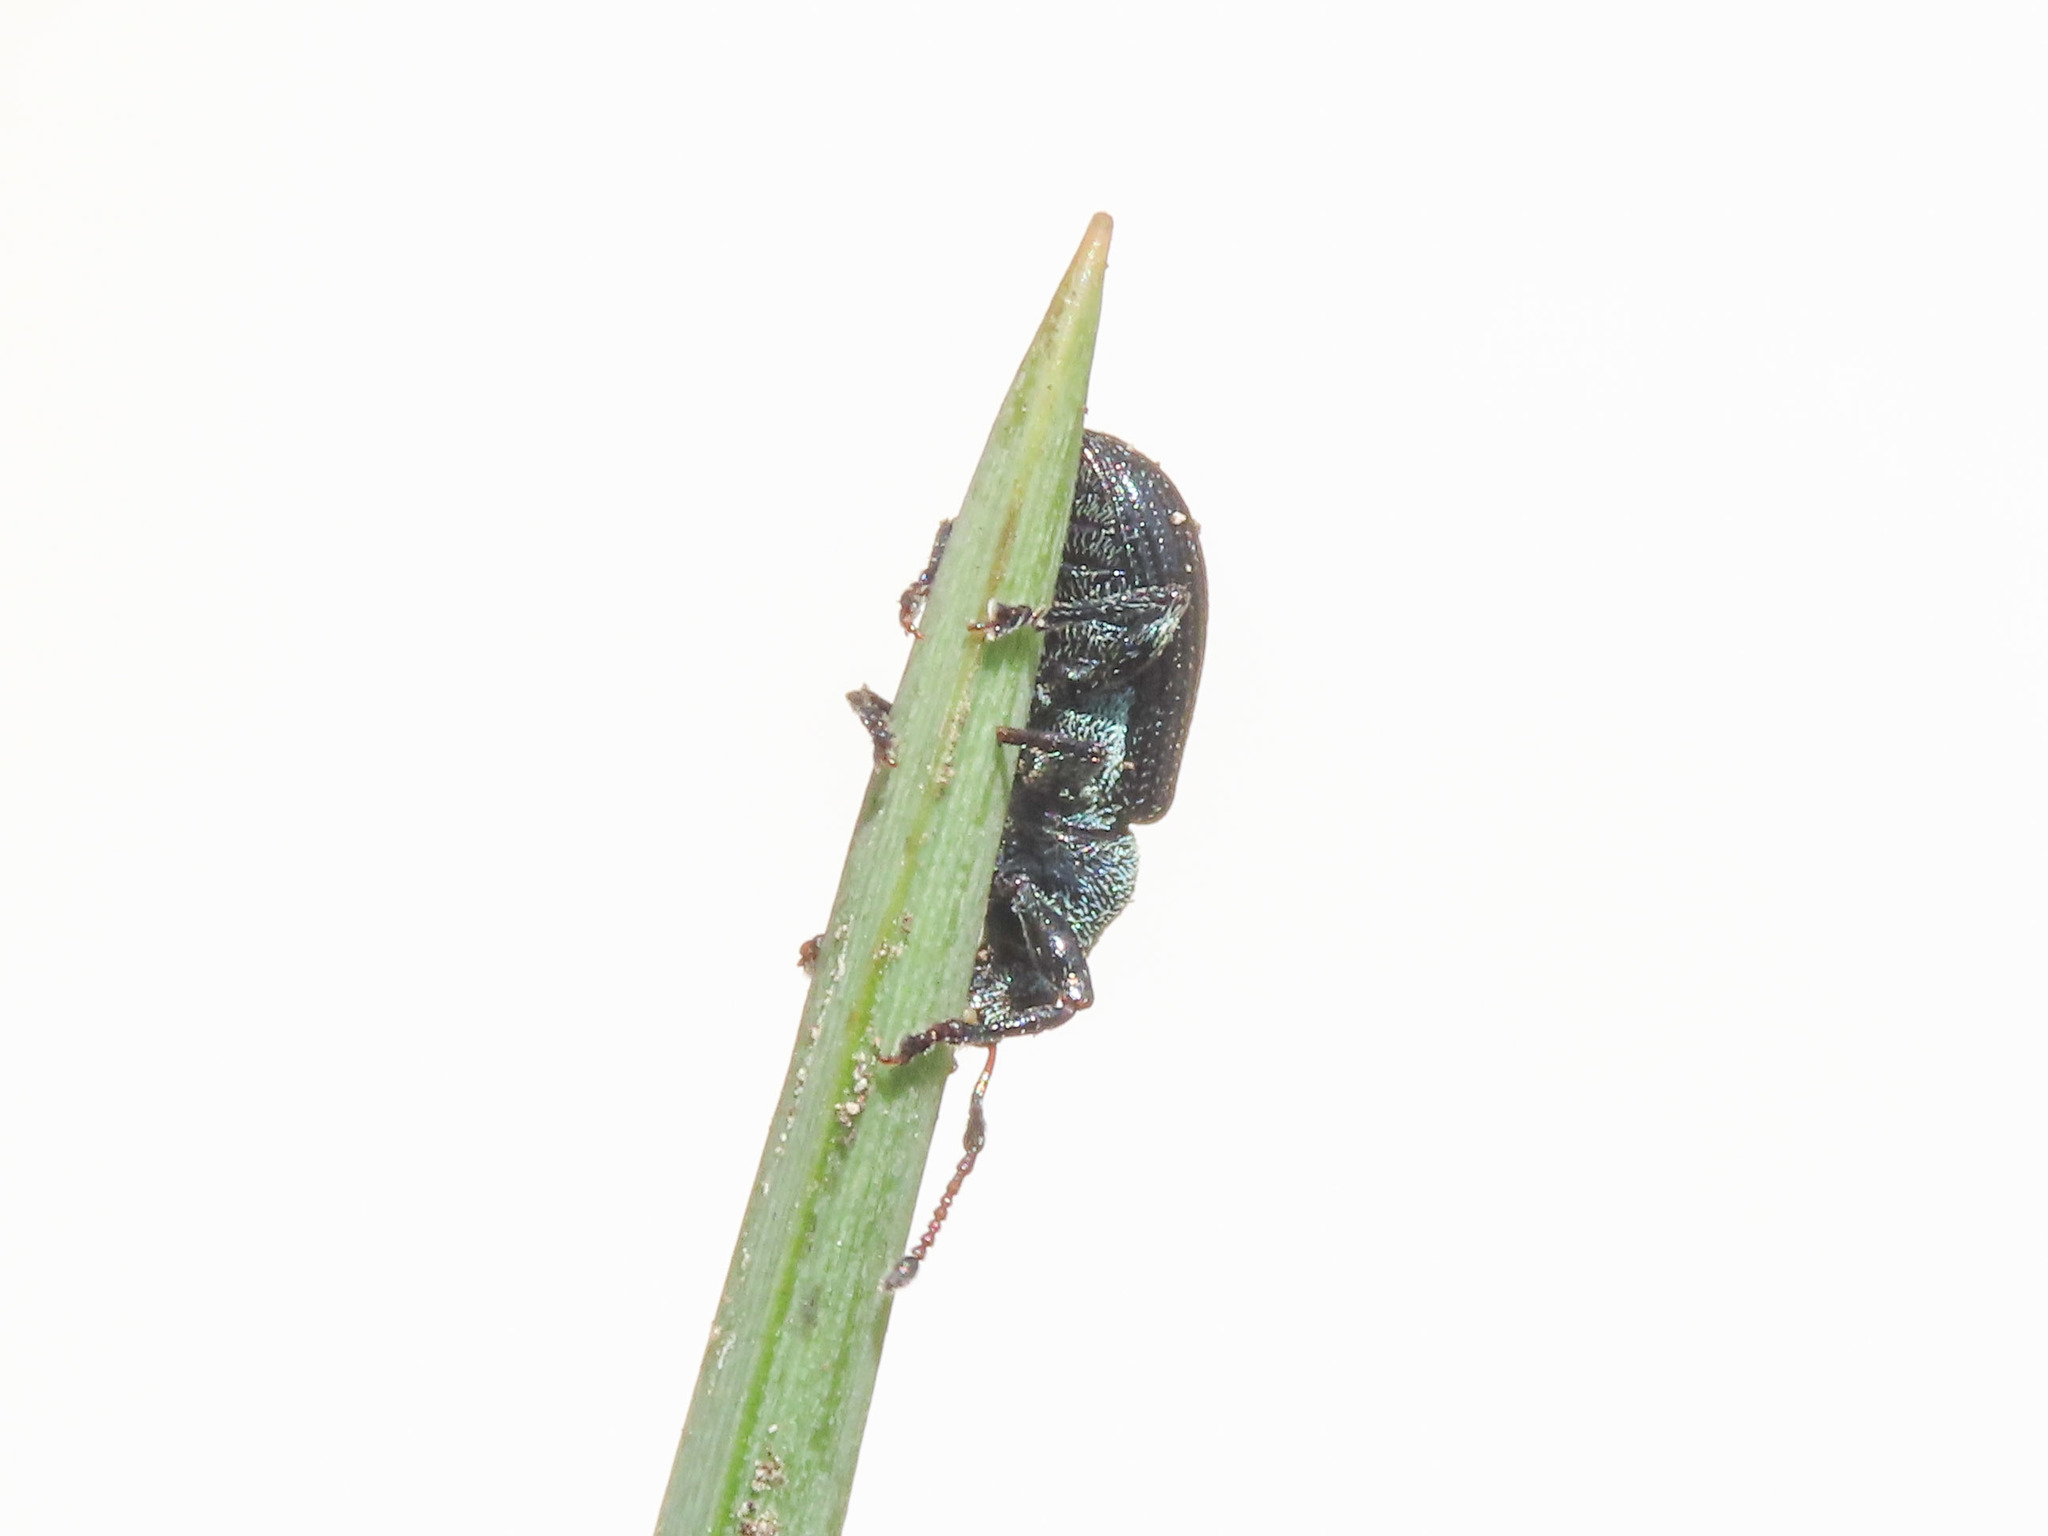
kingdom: Animalia
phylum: Arthropoda
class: Insecta
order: Coleoptera
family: Curculionidae
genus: Phyllobius
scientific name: Phyllobius viridicollis
